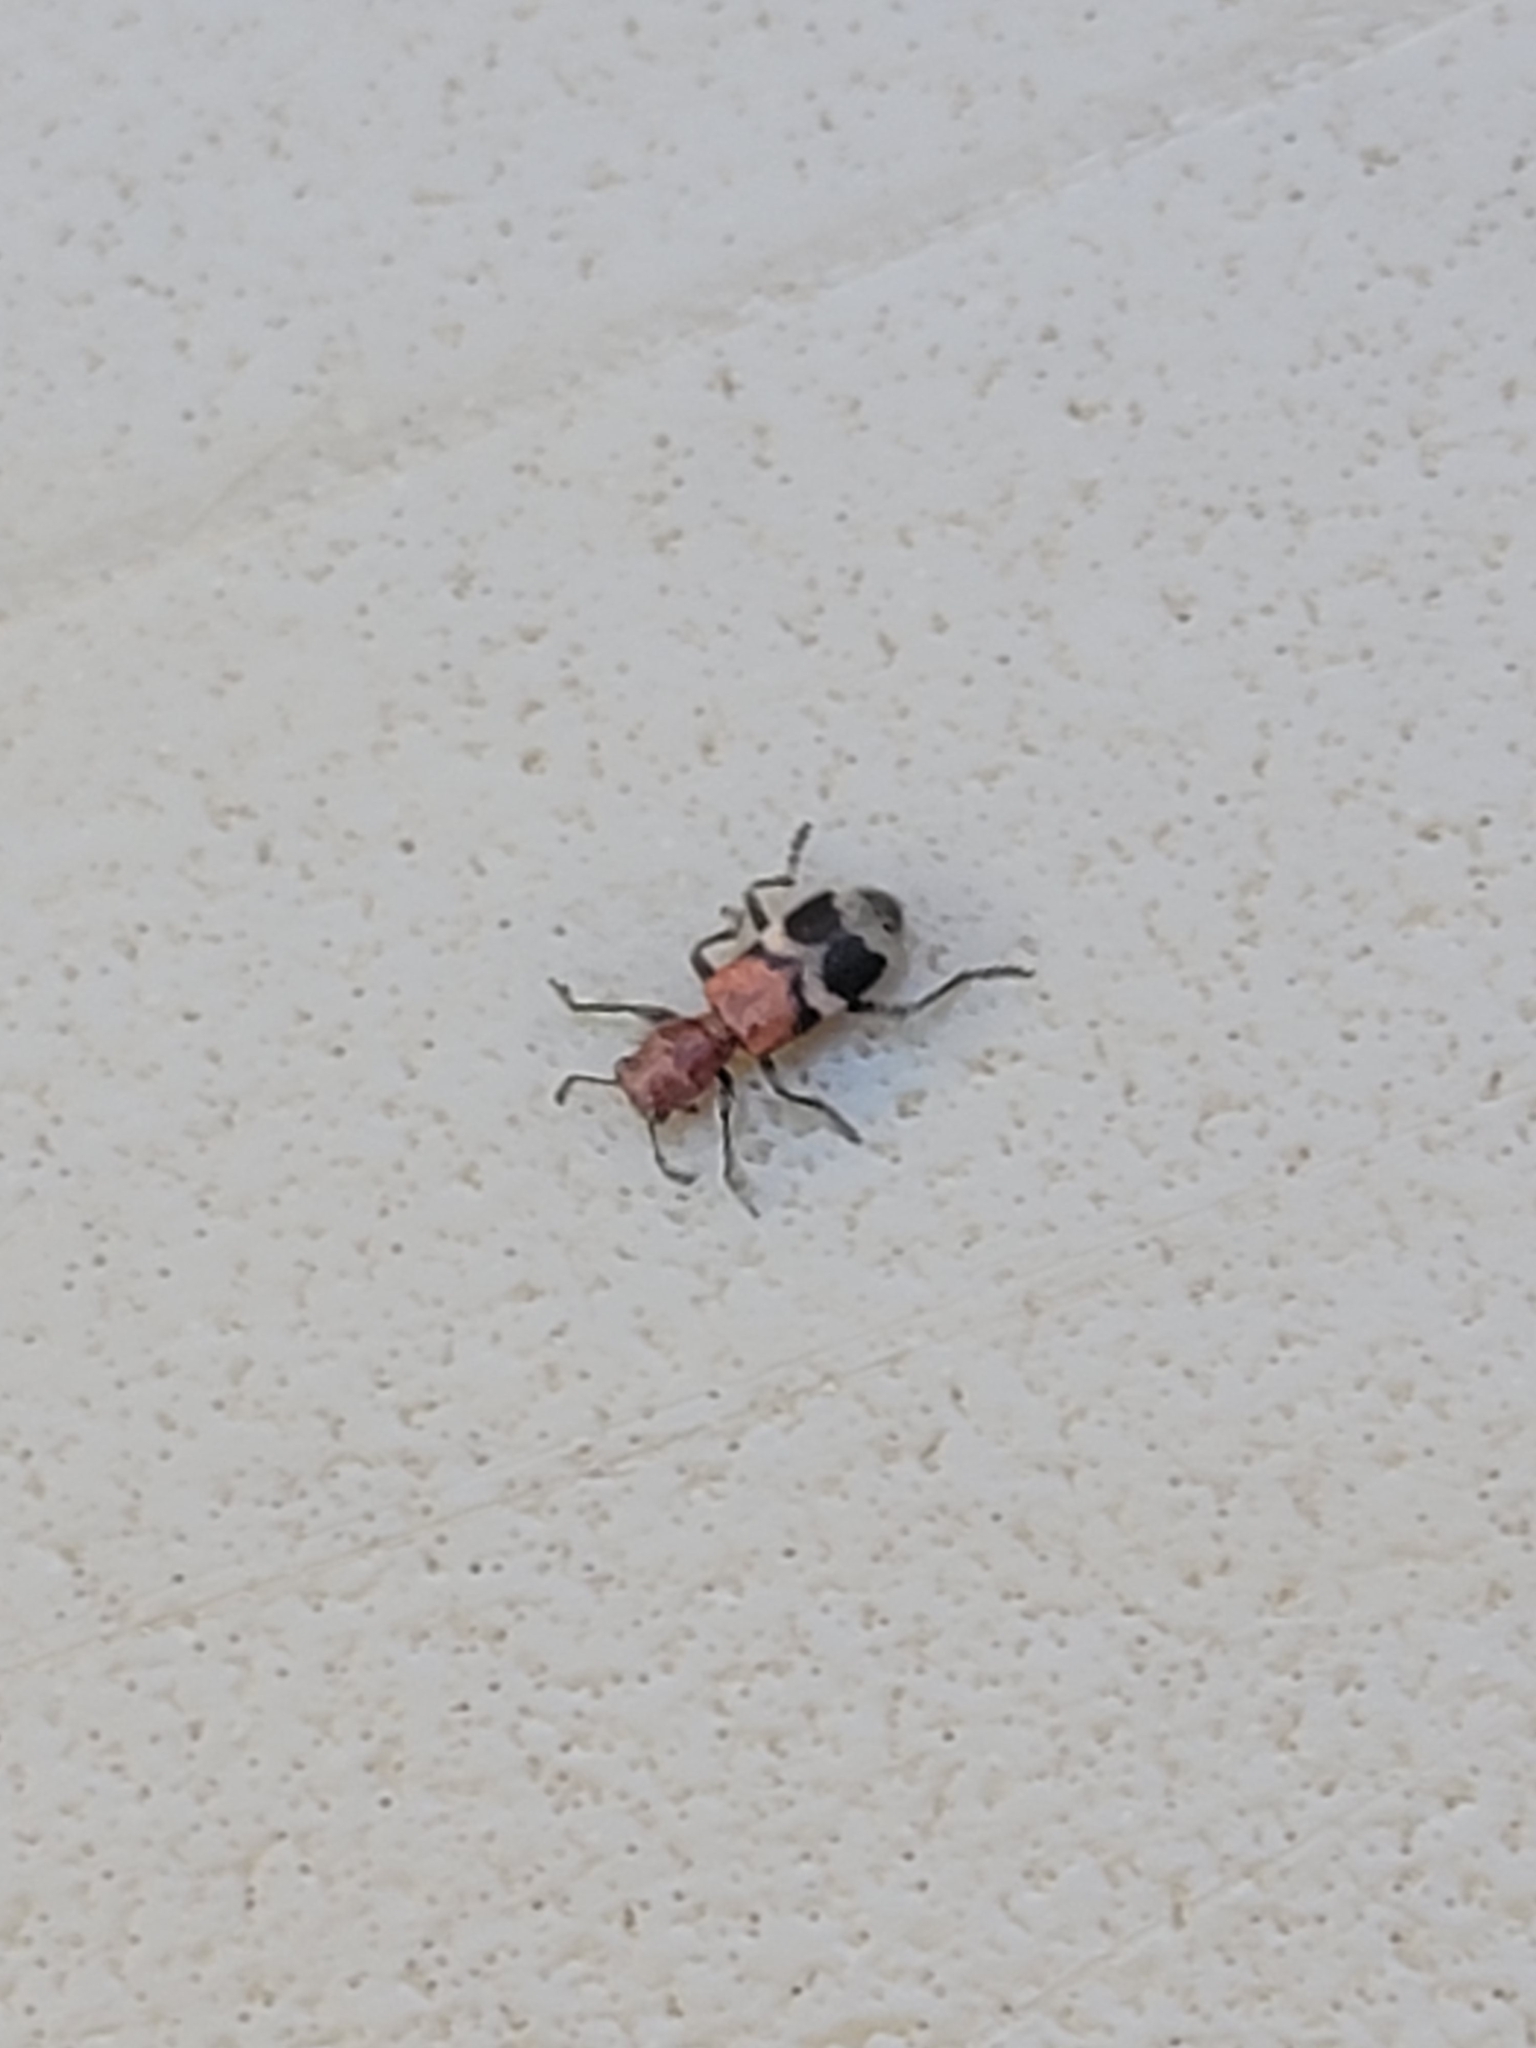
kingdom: Animalia
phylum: Arthropoda
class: Insecta
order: Coleoptera
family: Cleridae
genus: Enoclerus
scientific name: Enoclerus nigripes
